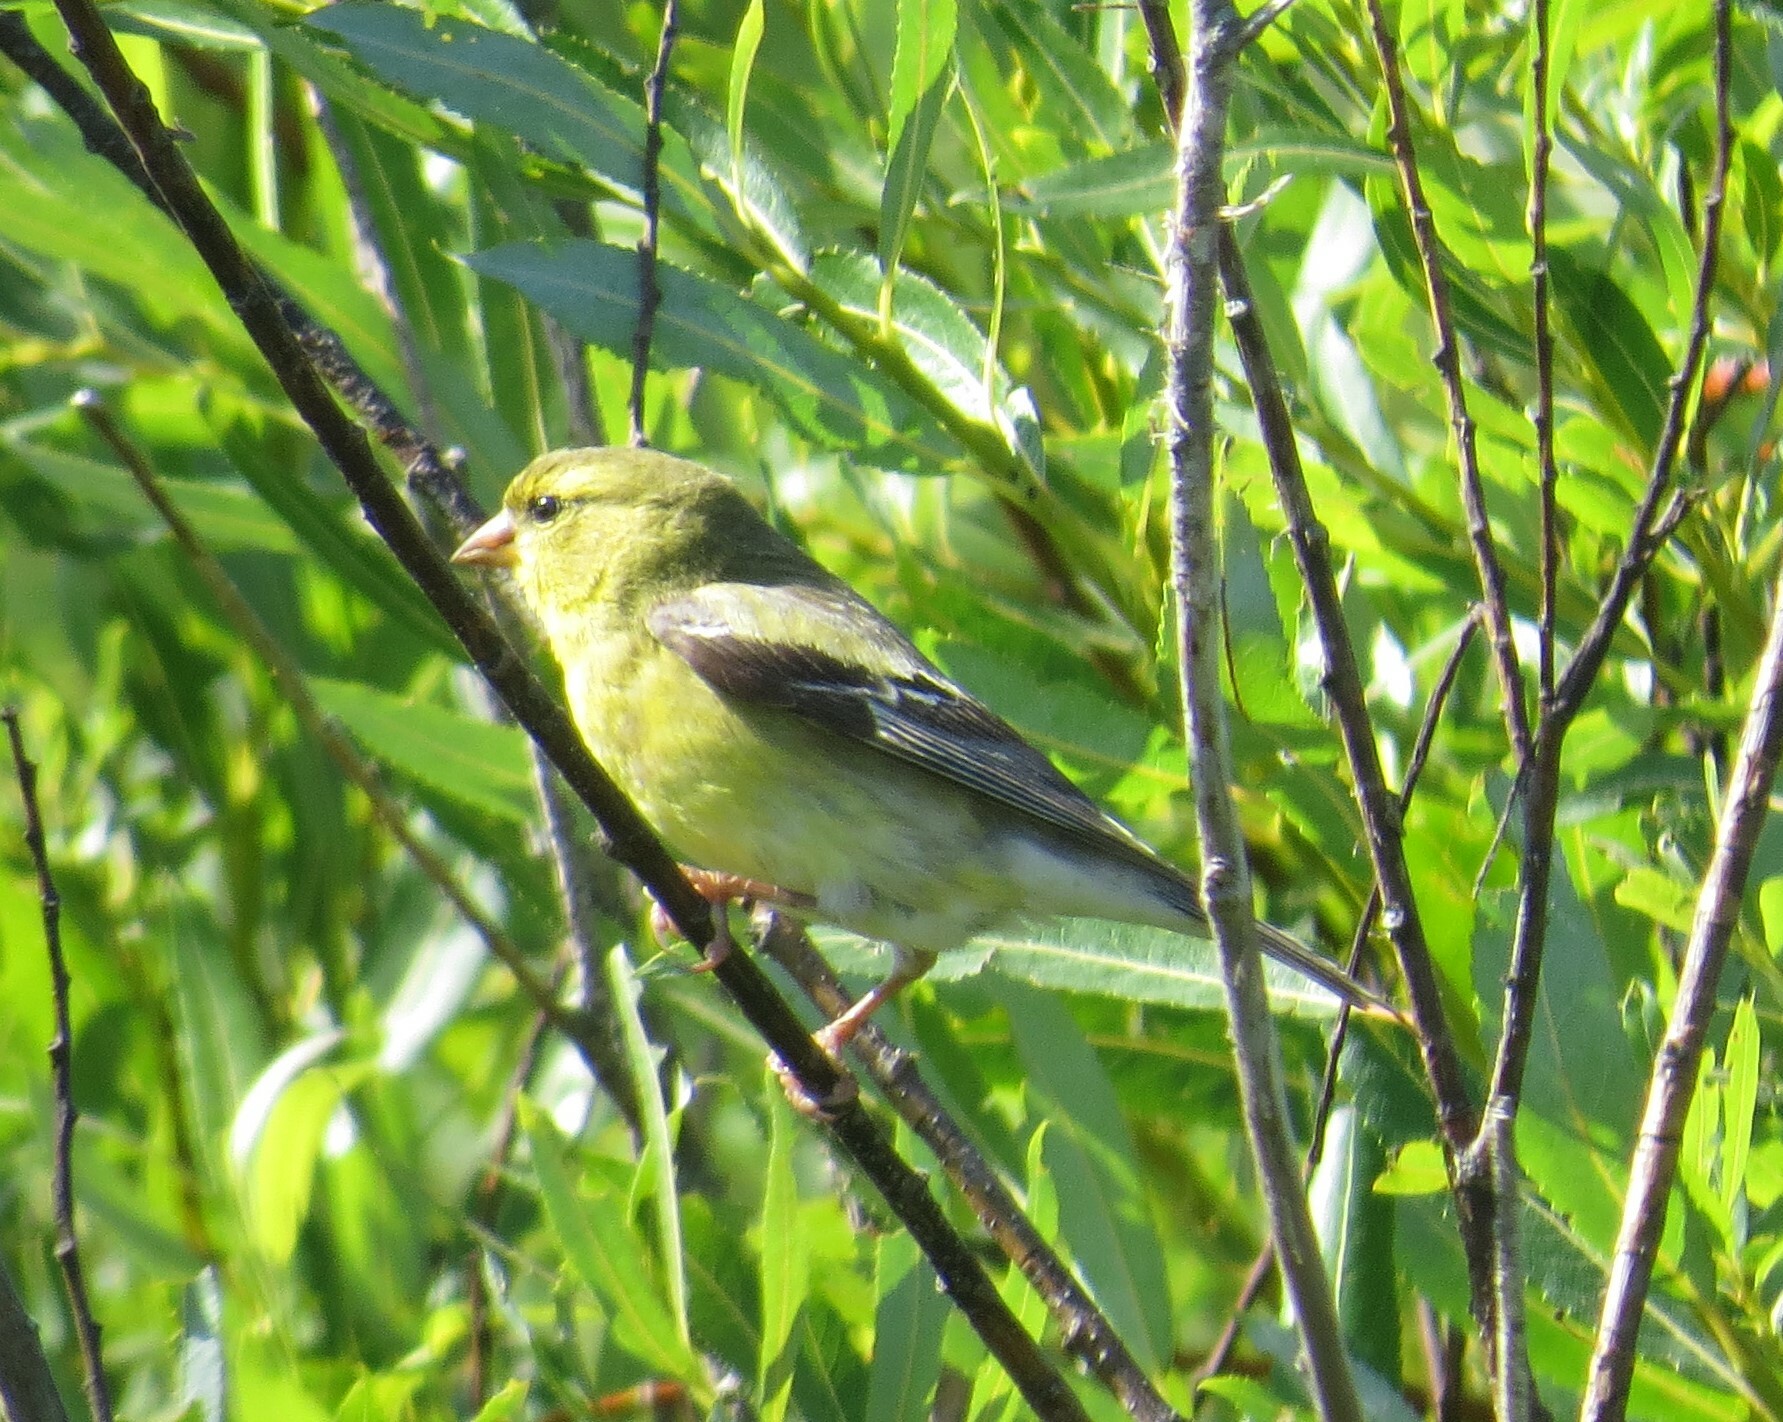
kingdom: Animalia
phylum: Chordata
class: Aves
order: Passeriformes
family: Fringillidae
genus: Spinus
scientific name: Spinus tristis
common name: American goldfinch
